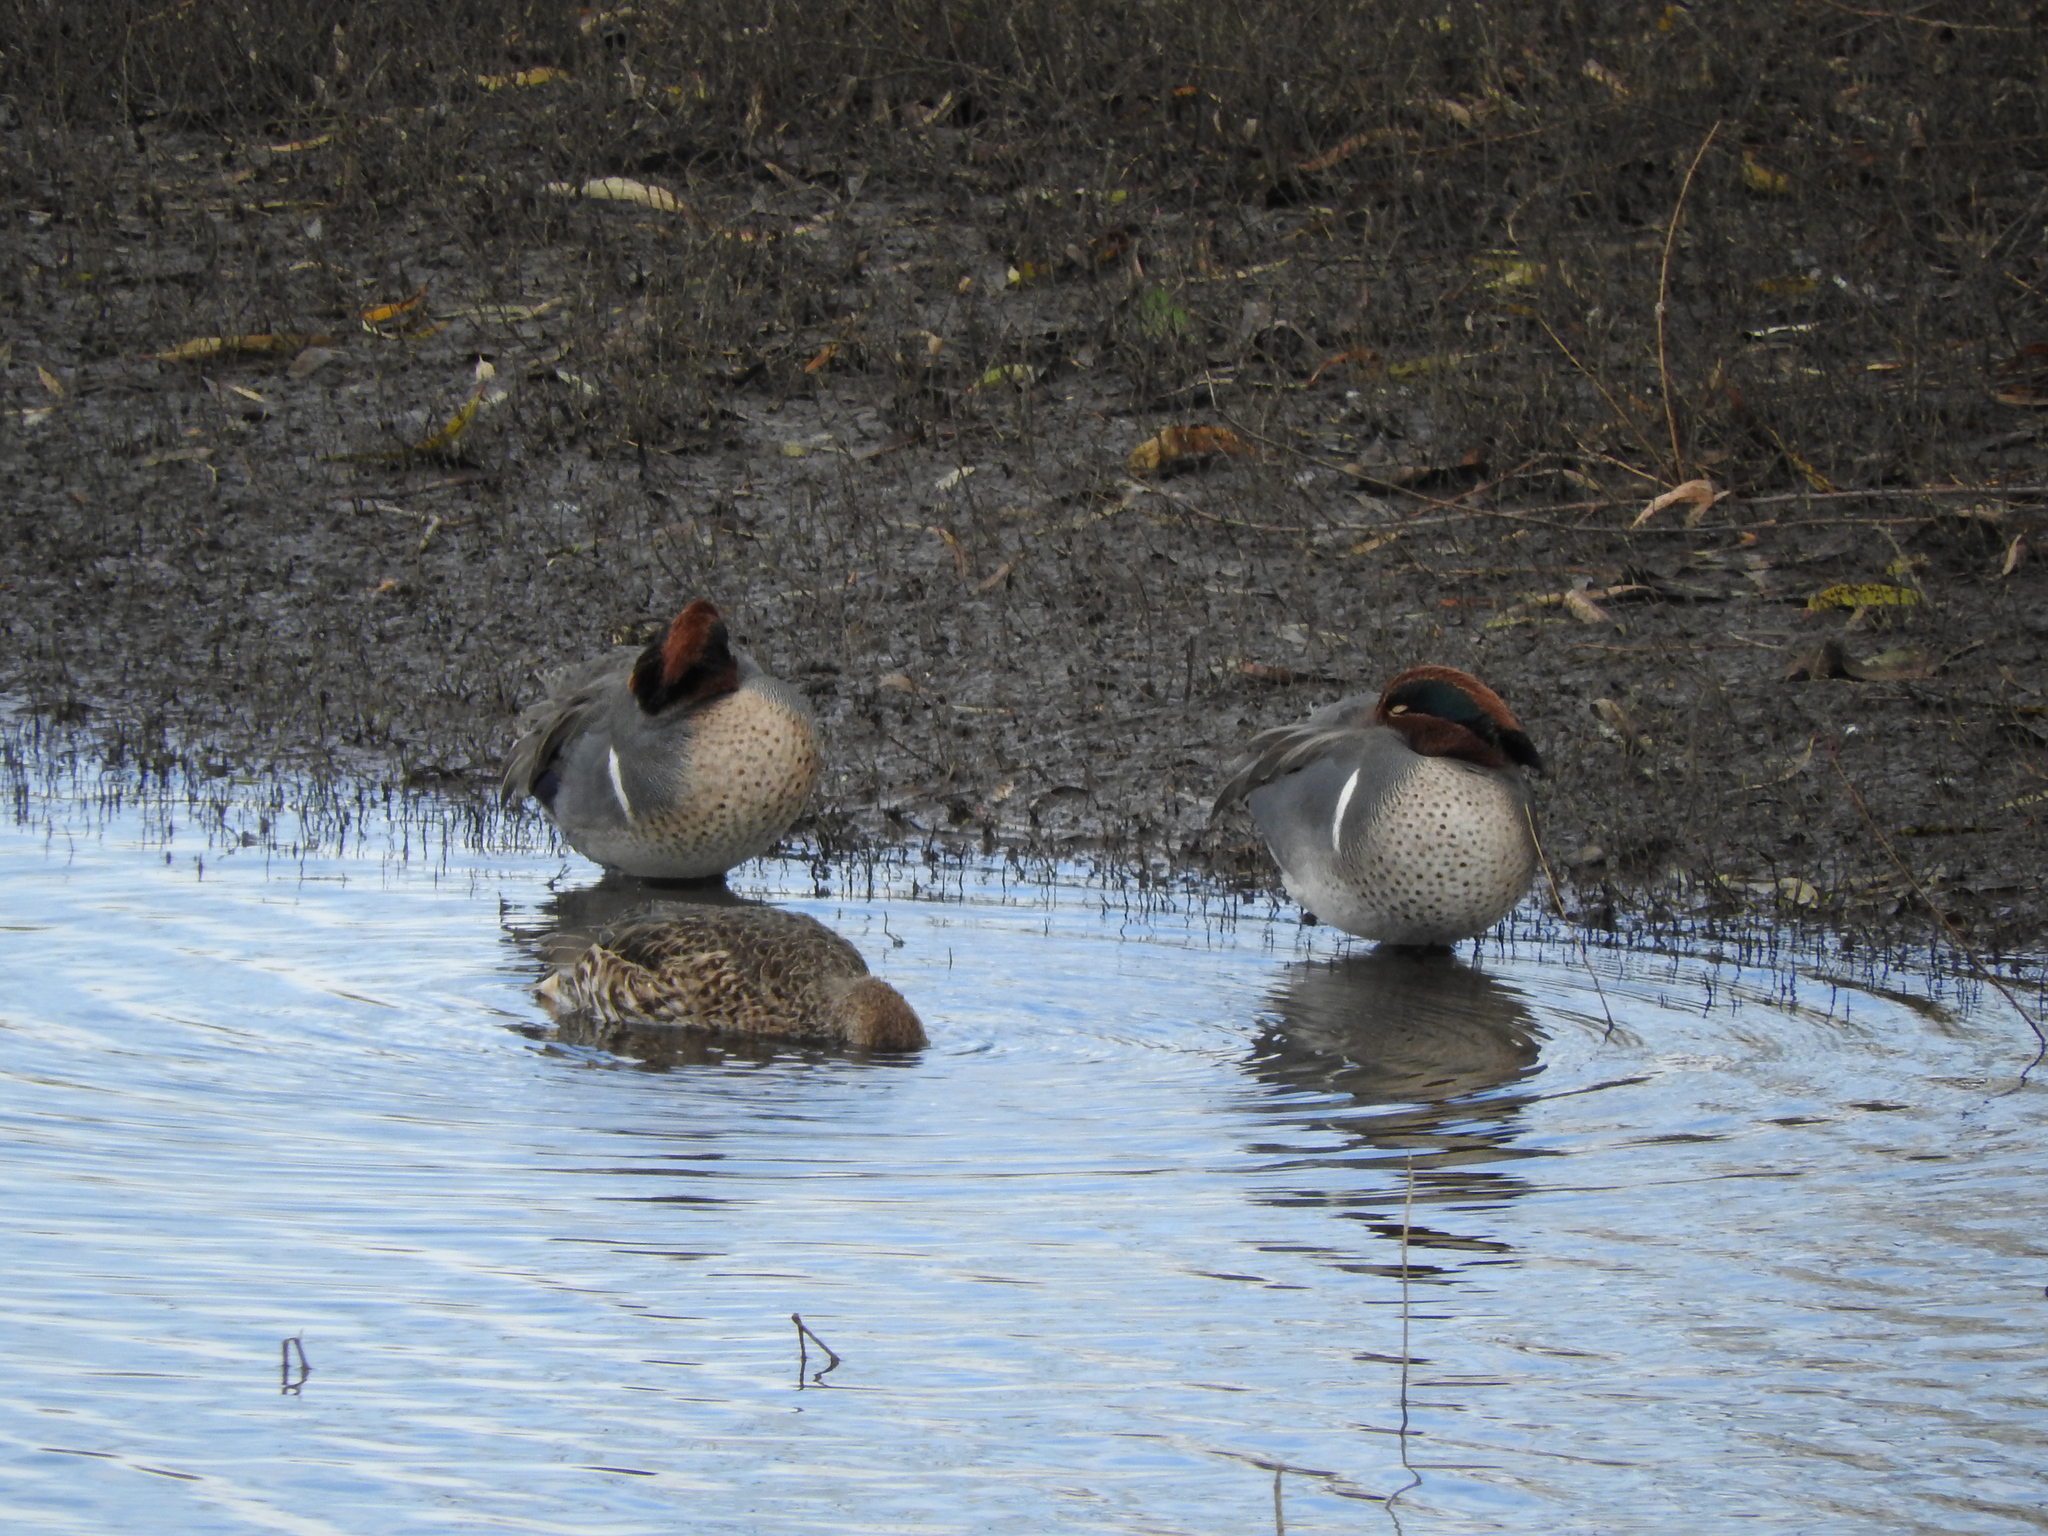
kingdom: Animalia
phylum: Chordata
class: Aves
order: Anseriformes
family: Anatidae
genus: Anas
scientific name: Anas carolinensis
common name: Green-winged teal
